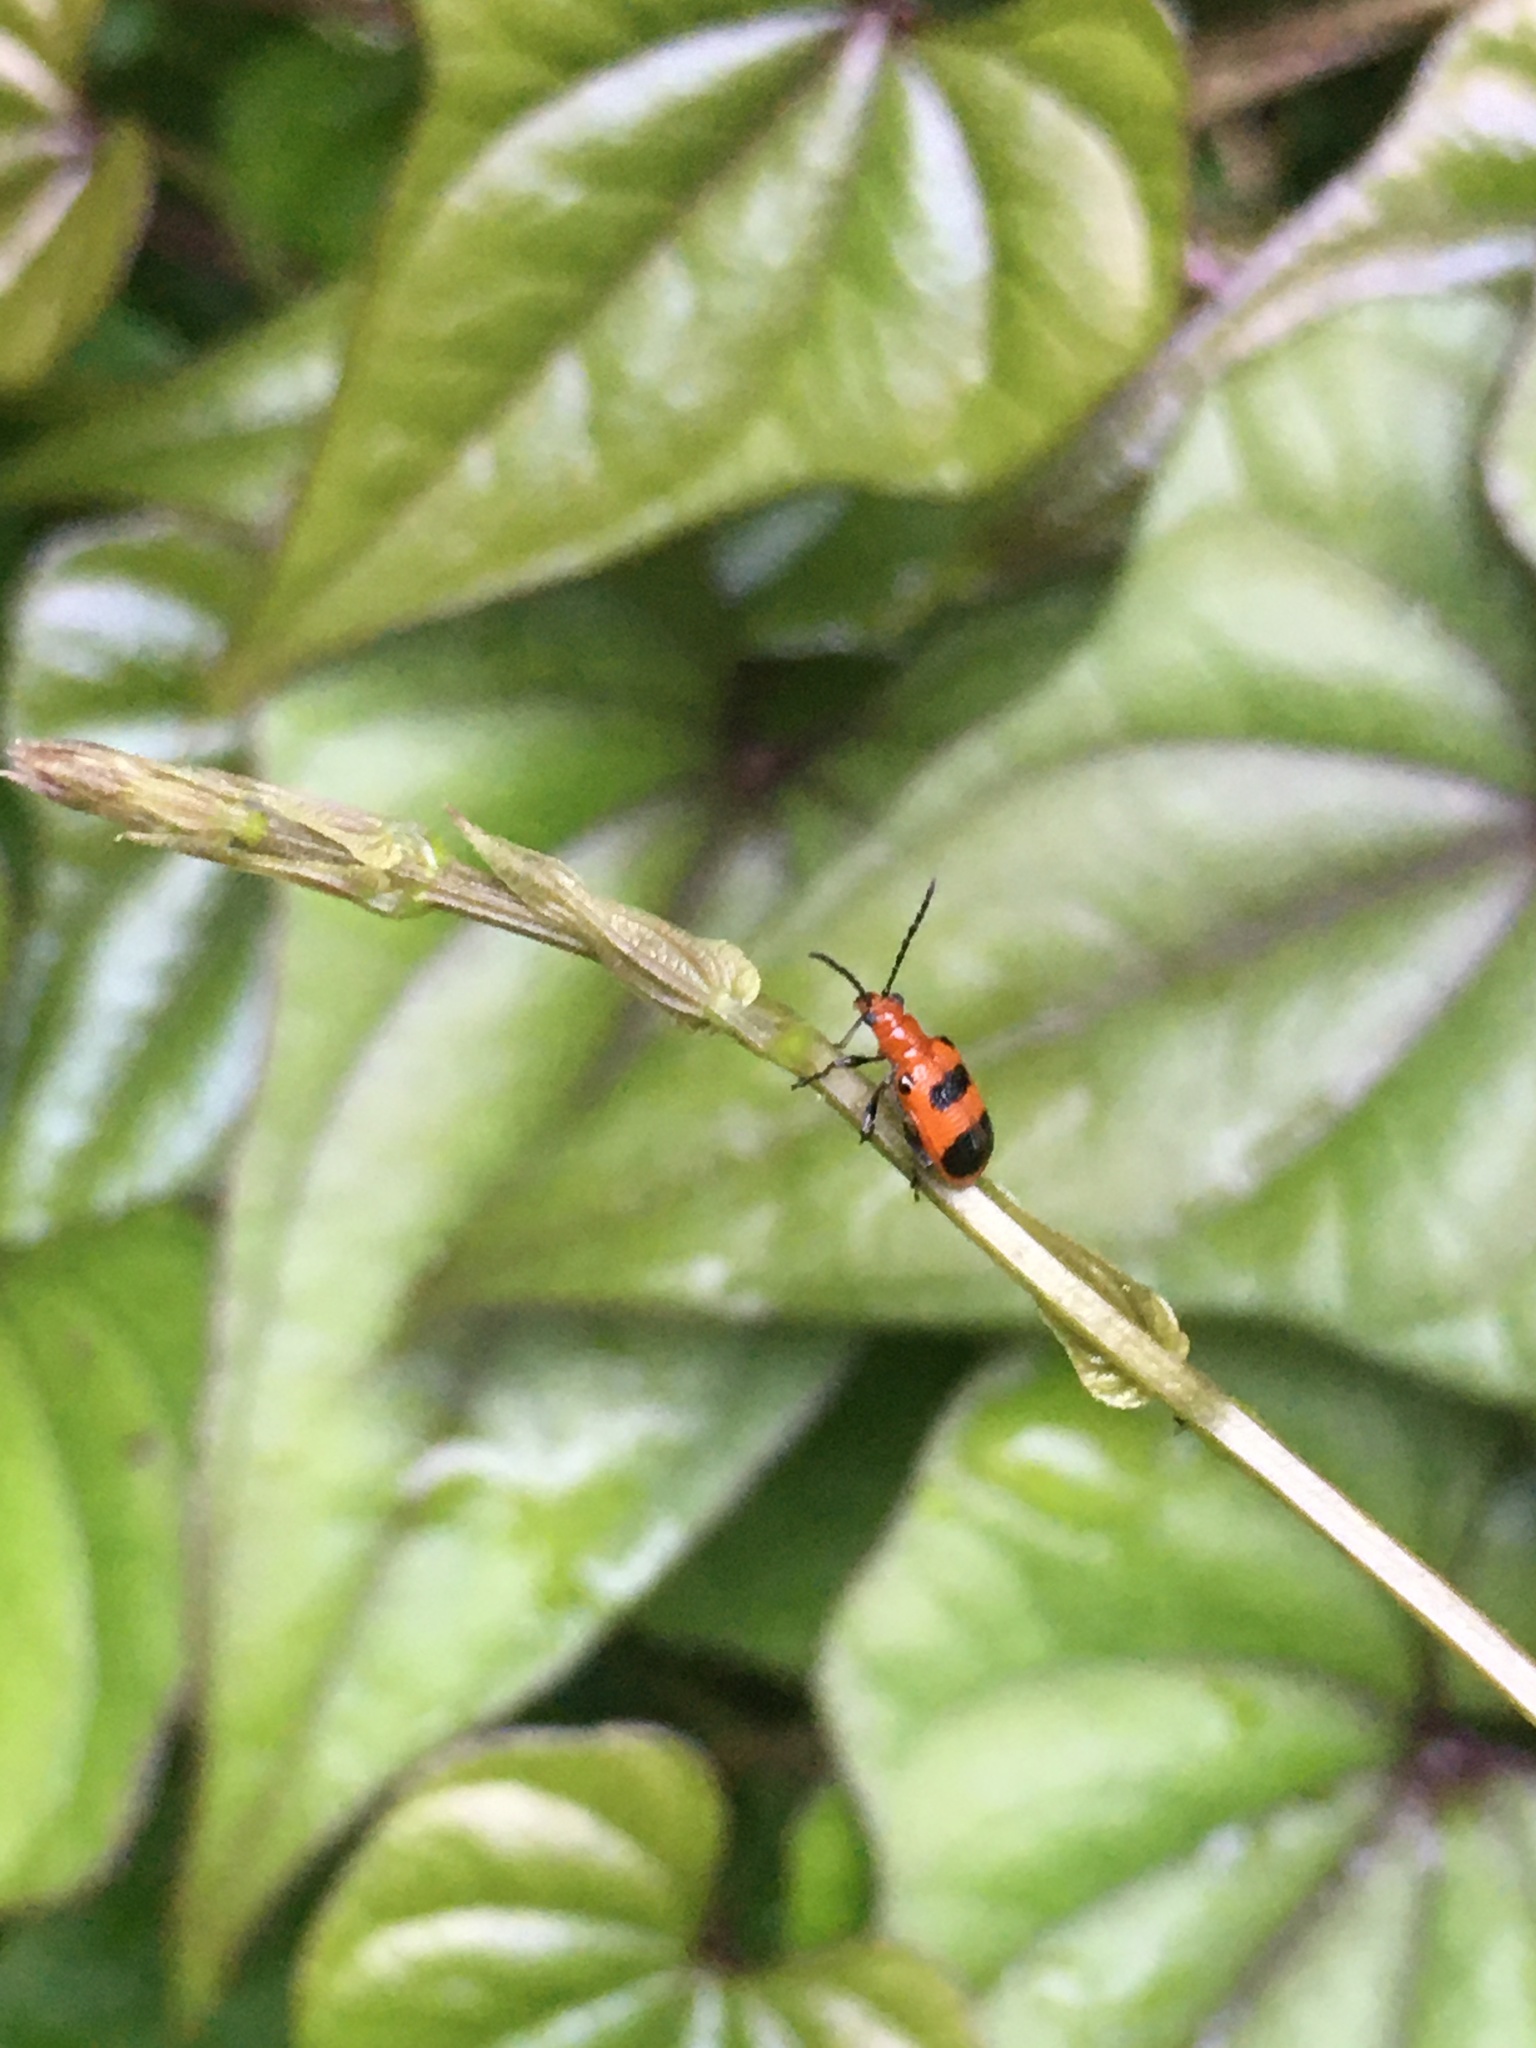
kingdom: Animalia
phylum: Arthropoda
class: Insecta
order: Coleoptera
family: Chrysomelidae
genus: Neolema
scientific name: Neolema sexpunctata
